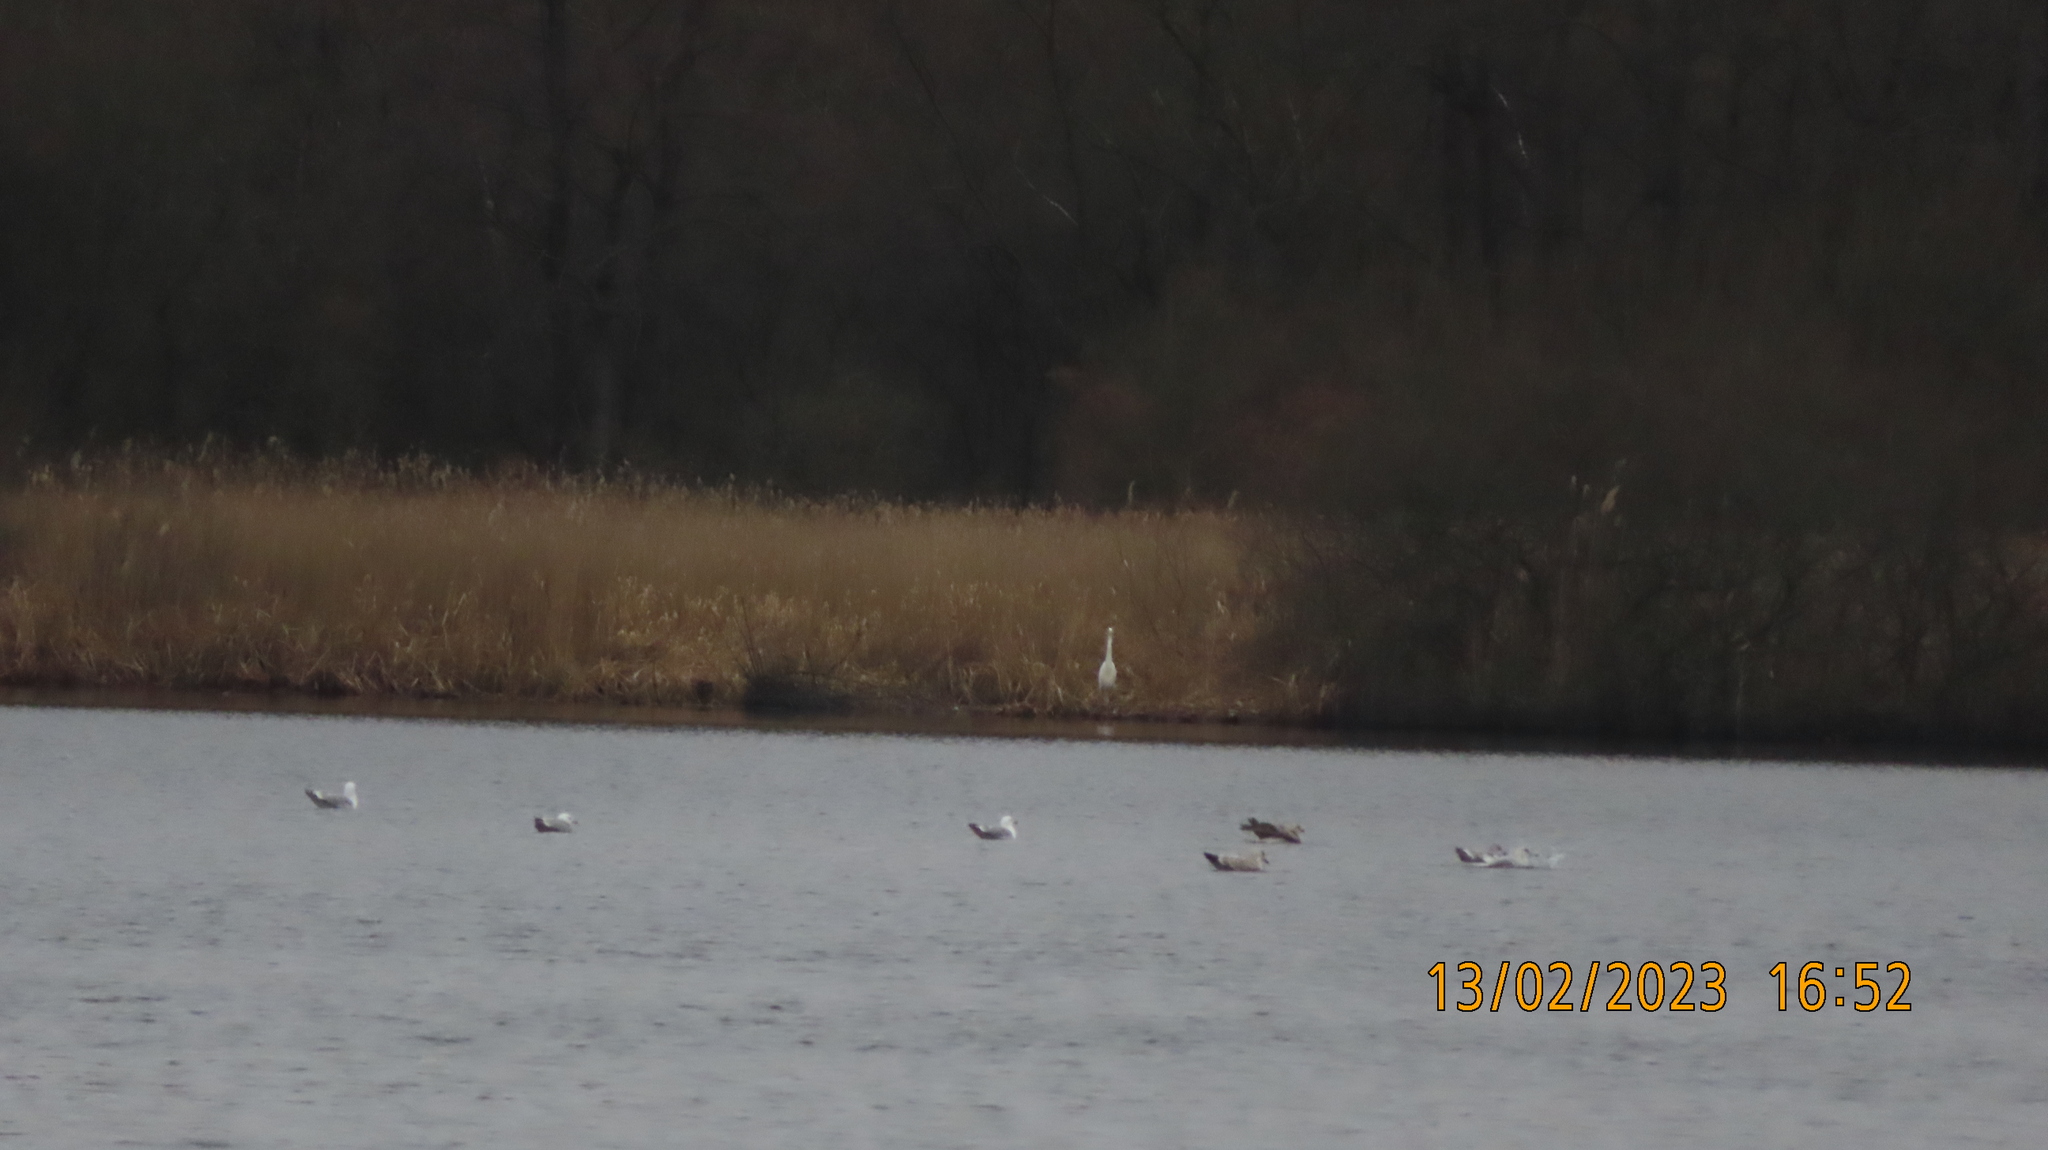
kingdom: Animalia
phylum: Chordata
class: Aves
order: Pelecaniformes
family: Ardeidae
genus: Ardea
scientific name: Ardea alba
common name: Great egret
